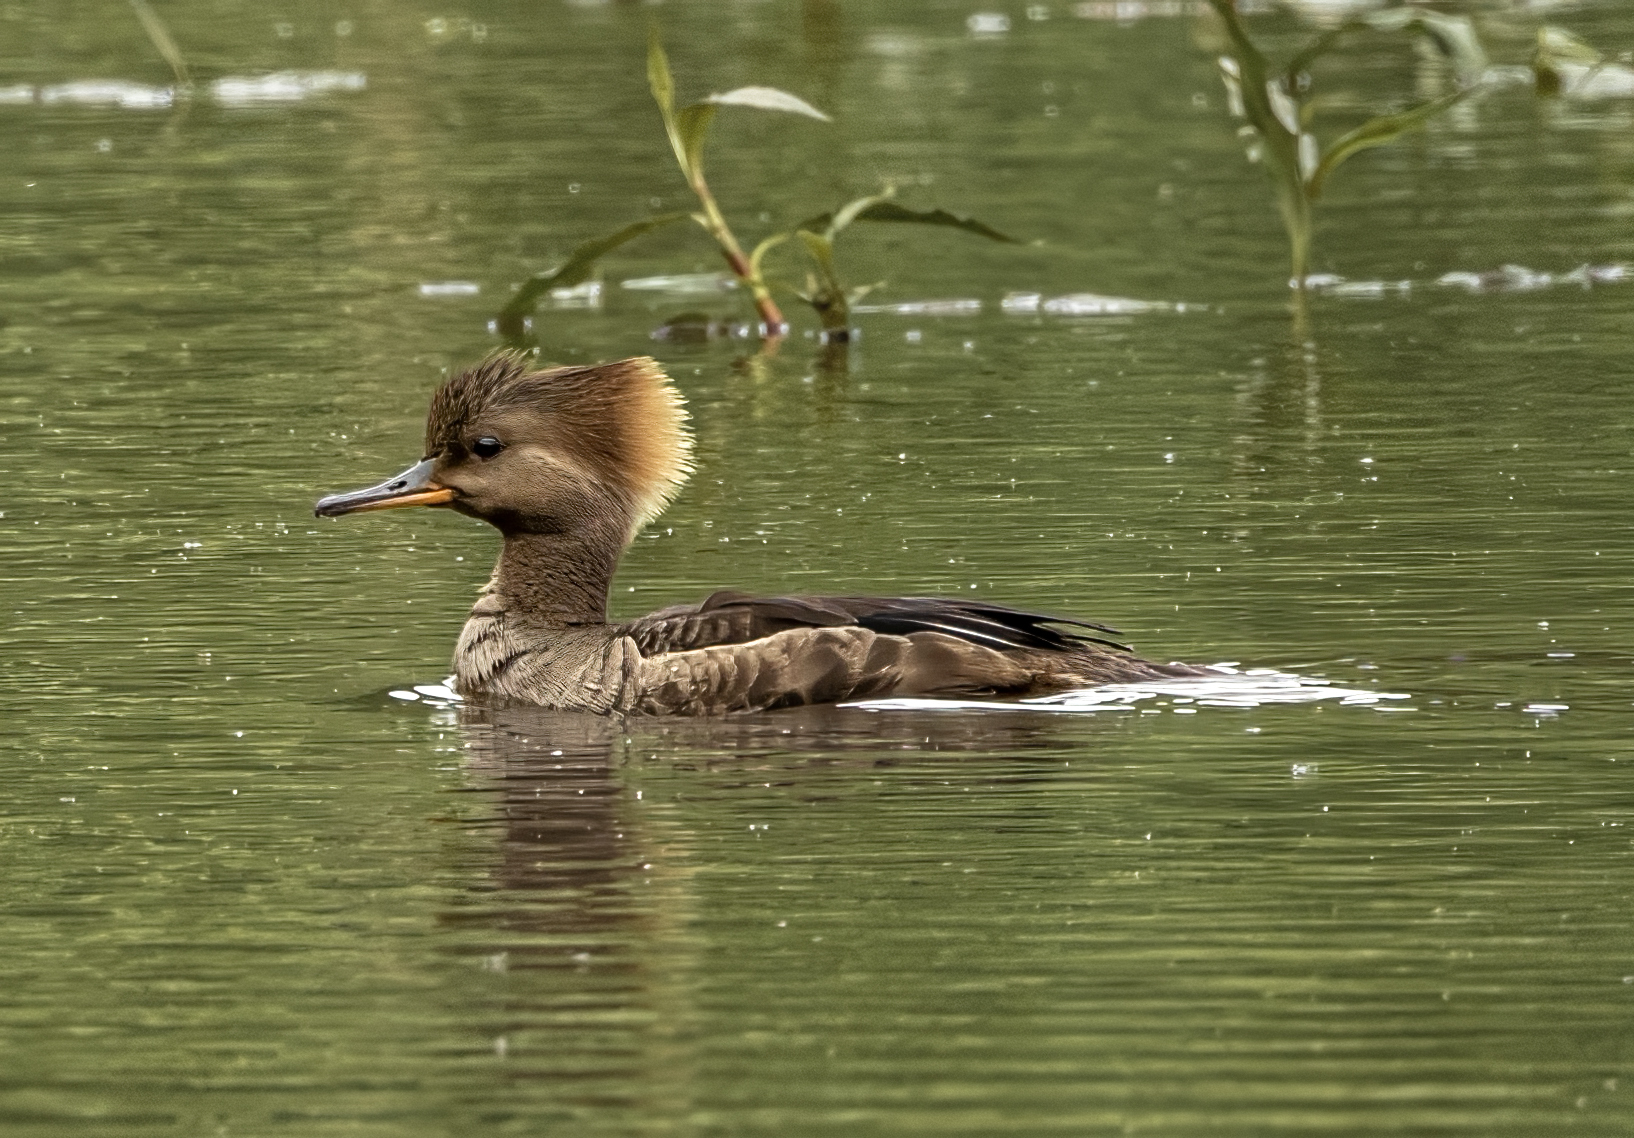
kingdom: Animalia
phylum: Chordata
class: Aves
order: Anseriformes
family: Anatidae
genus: Lophodytes
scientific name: Lophodytes cucullatus
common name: Hooded merganser
